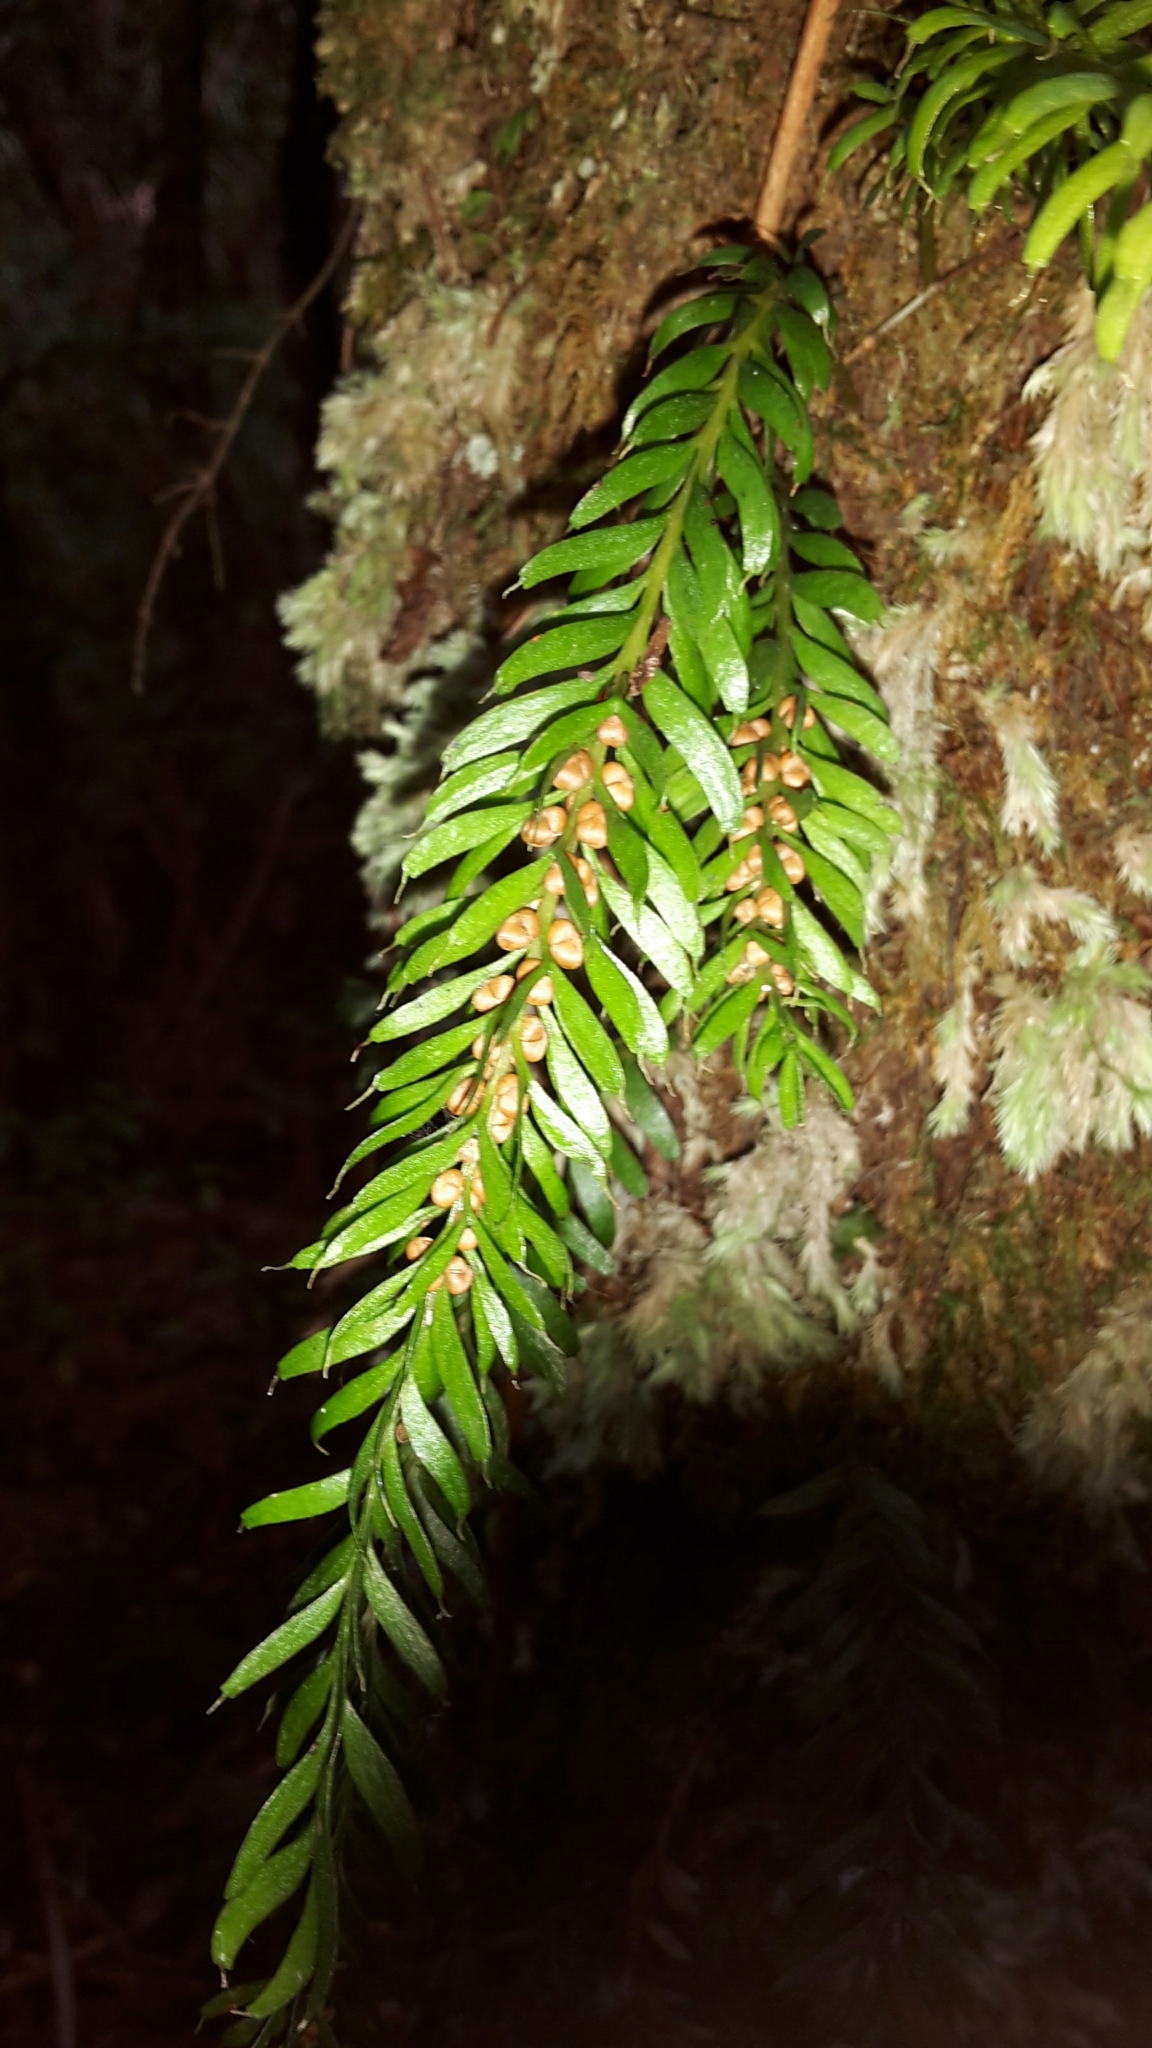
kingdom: Plantae
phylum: Tracheophyta
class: Polypodiopsida
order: Psilotales
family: Psilotaceae
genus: Tmesipteris
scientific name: Tmesipteris sigmatifolia
